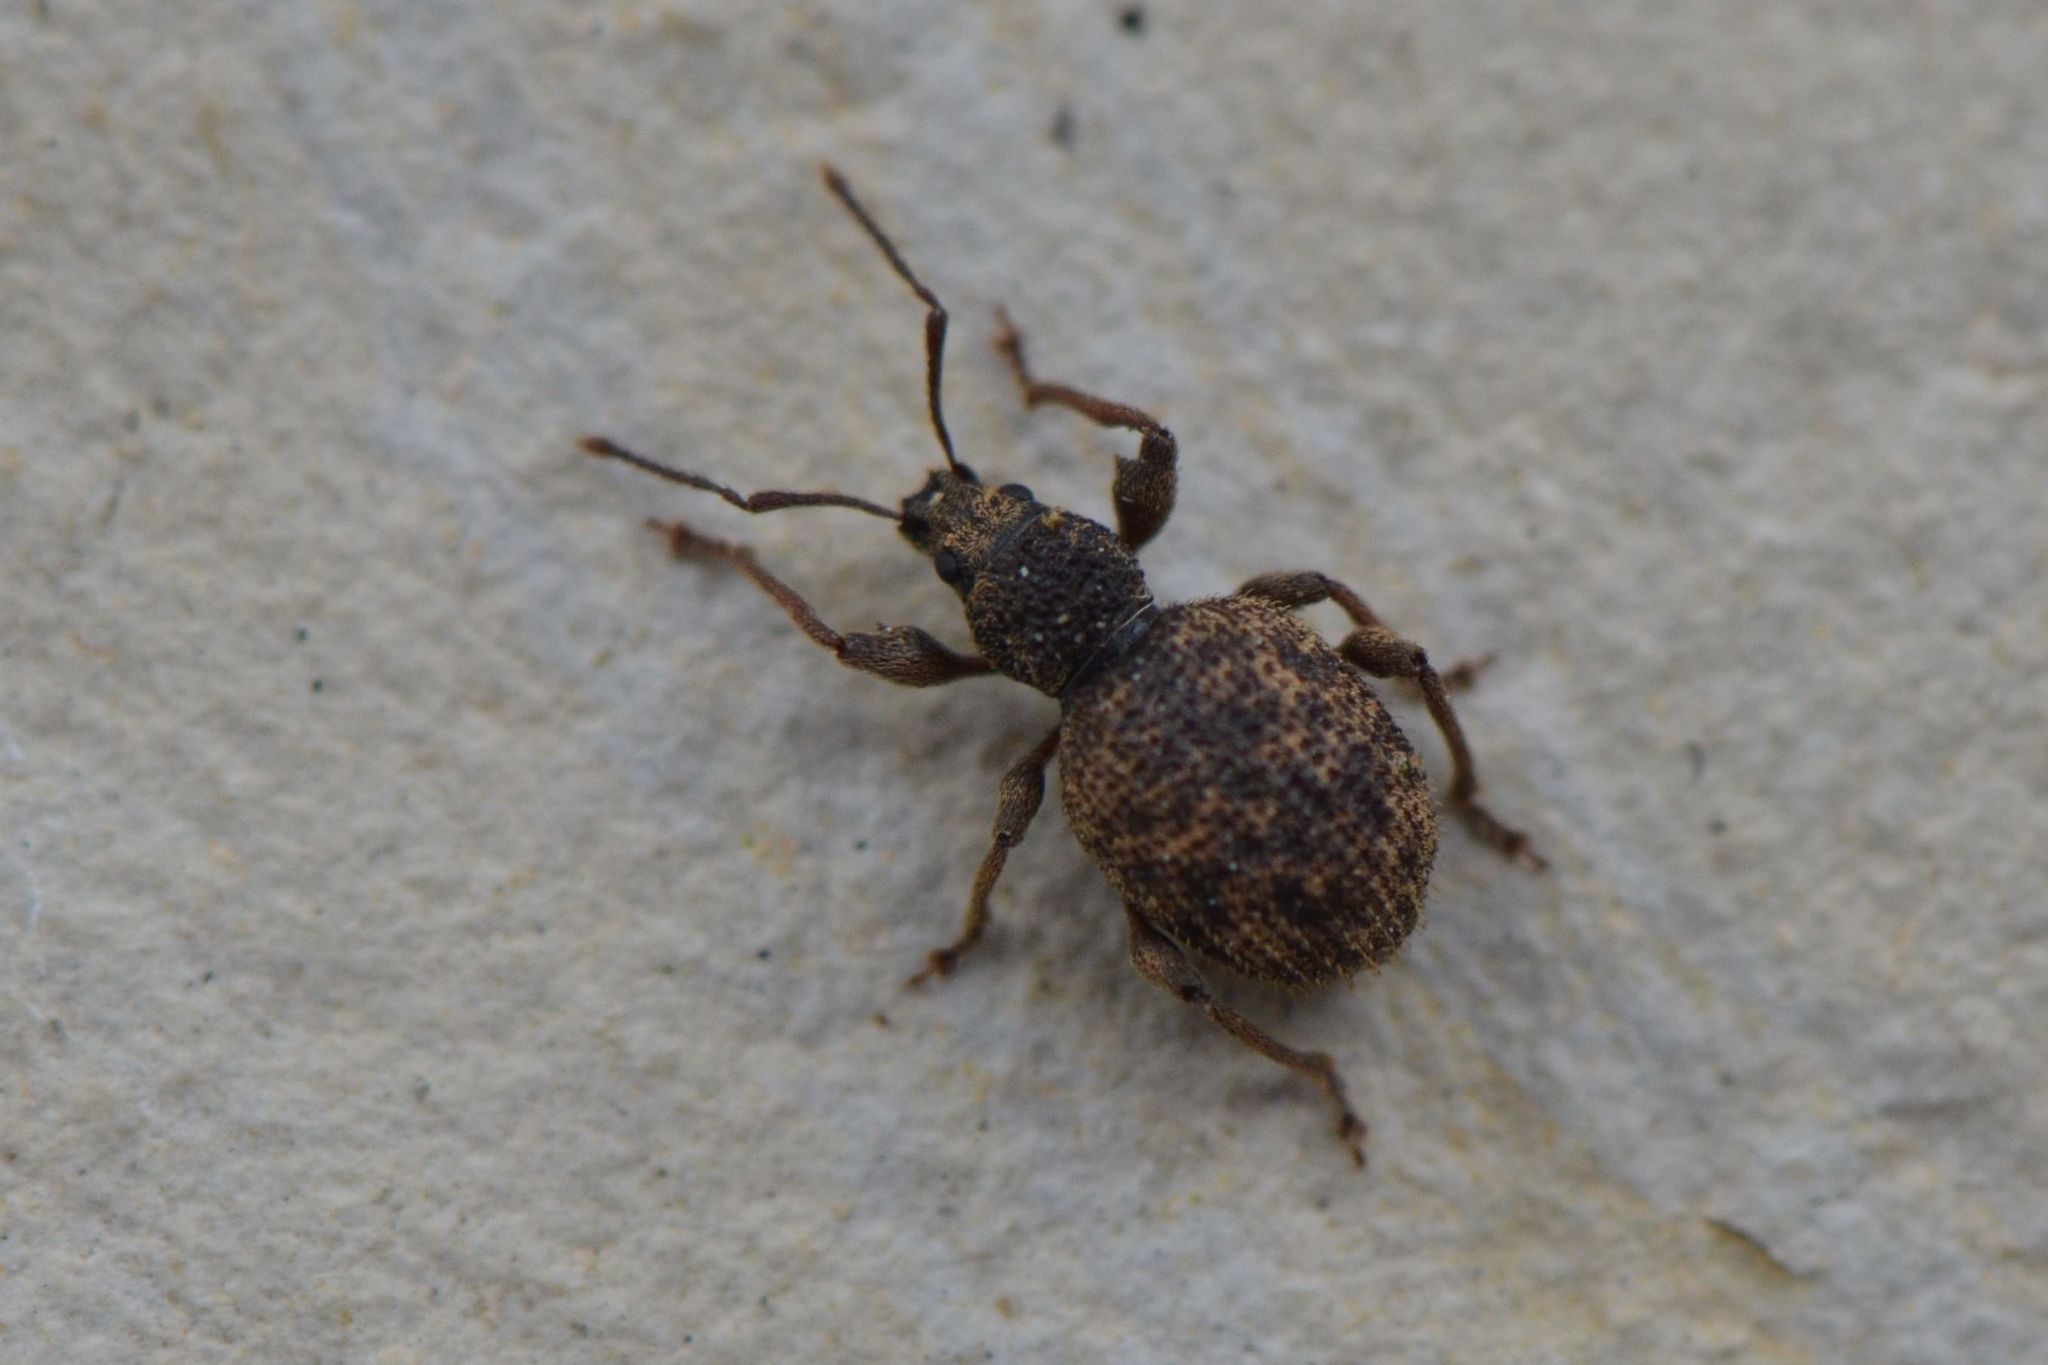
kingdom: Animalia
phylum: Arthropoda
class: Insecta
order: Coleoptera
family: Curculionidae
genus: Otiorhynchus
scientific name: Otiorhynchus crataegi
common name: Privet weevil
